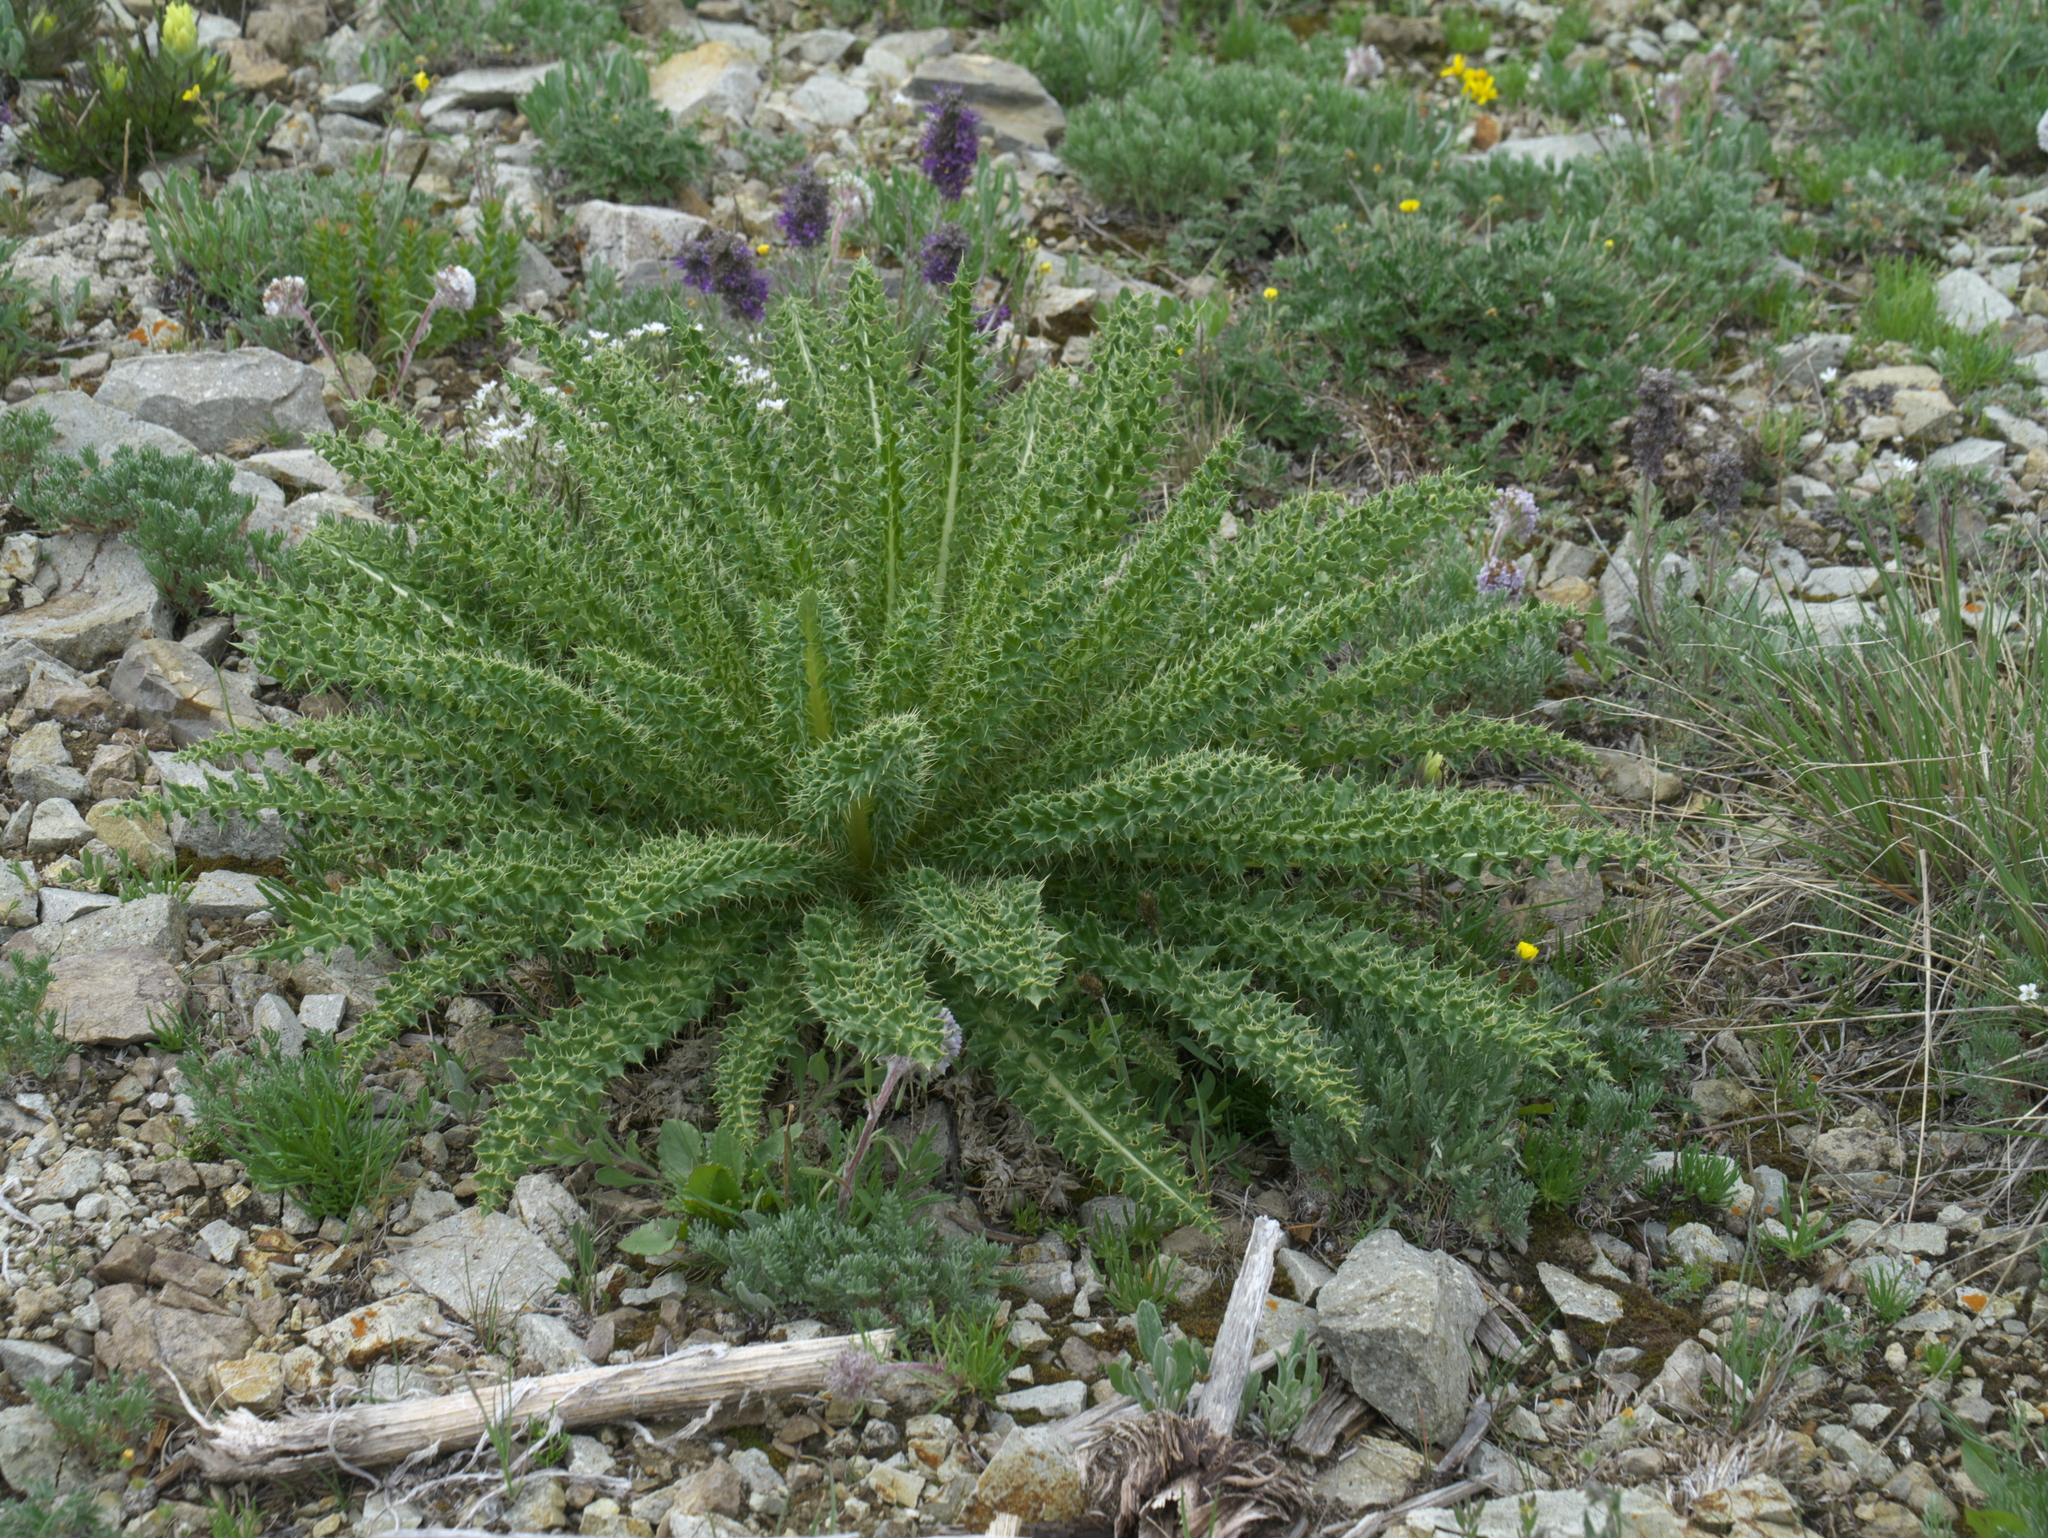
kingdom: Plantae
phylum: Tracheophyta
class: Magnoliopsida
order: Asterales
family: Asteraceae
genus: Cirsium
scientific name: Cirsium scopulorum
